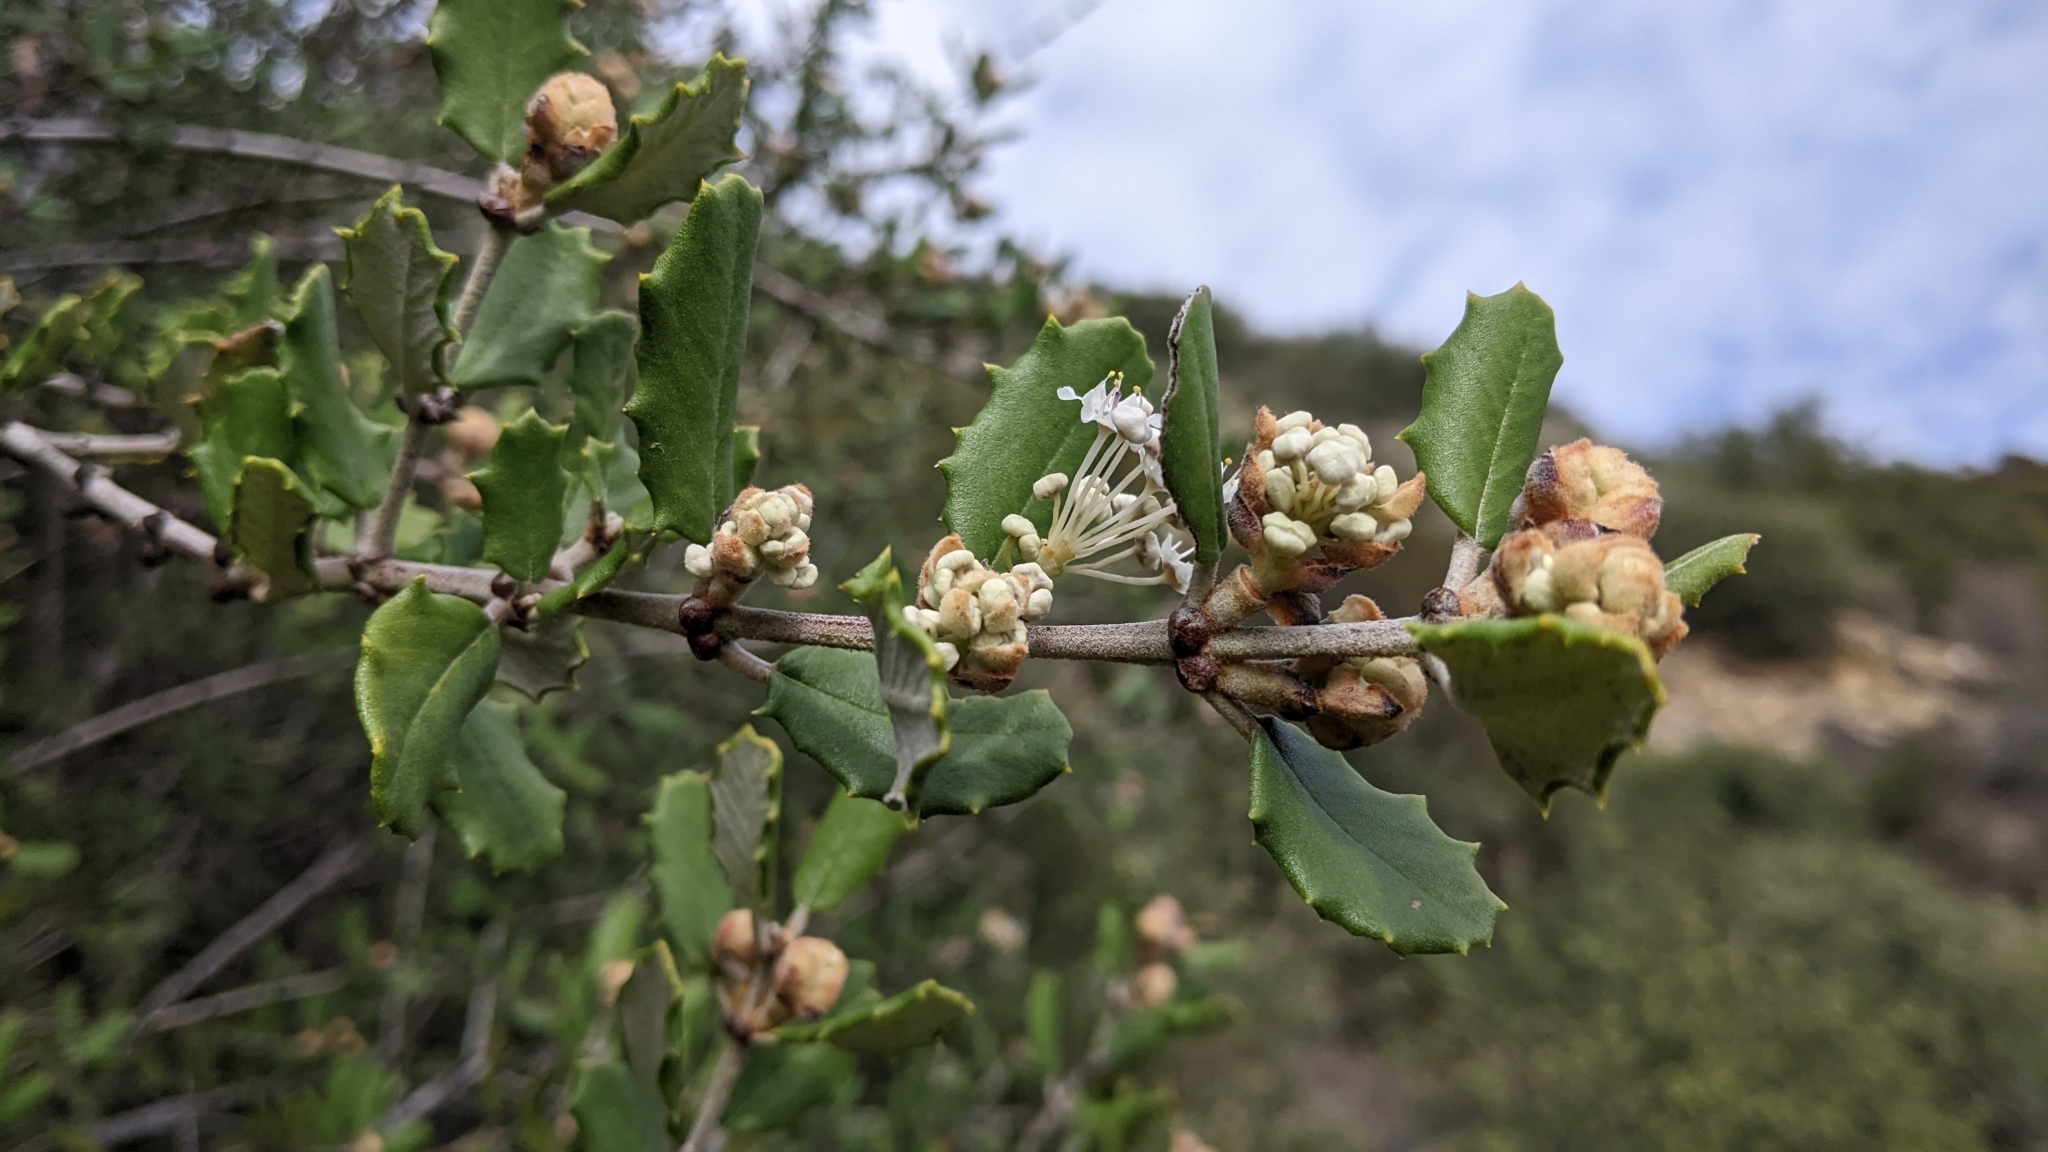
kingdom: Plantae
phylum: Tracheophyta
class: Magnoliopsida
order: Rosales
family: Rhamnaceae
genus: Ceanothus
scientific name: Ceanothus crassifolius
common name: Hoaryleaf ceanothus
